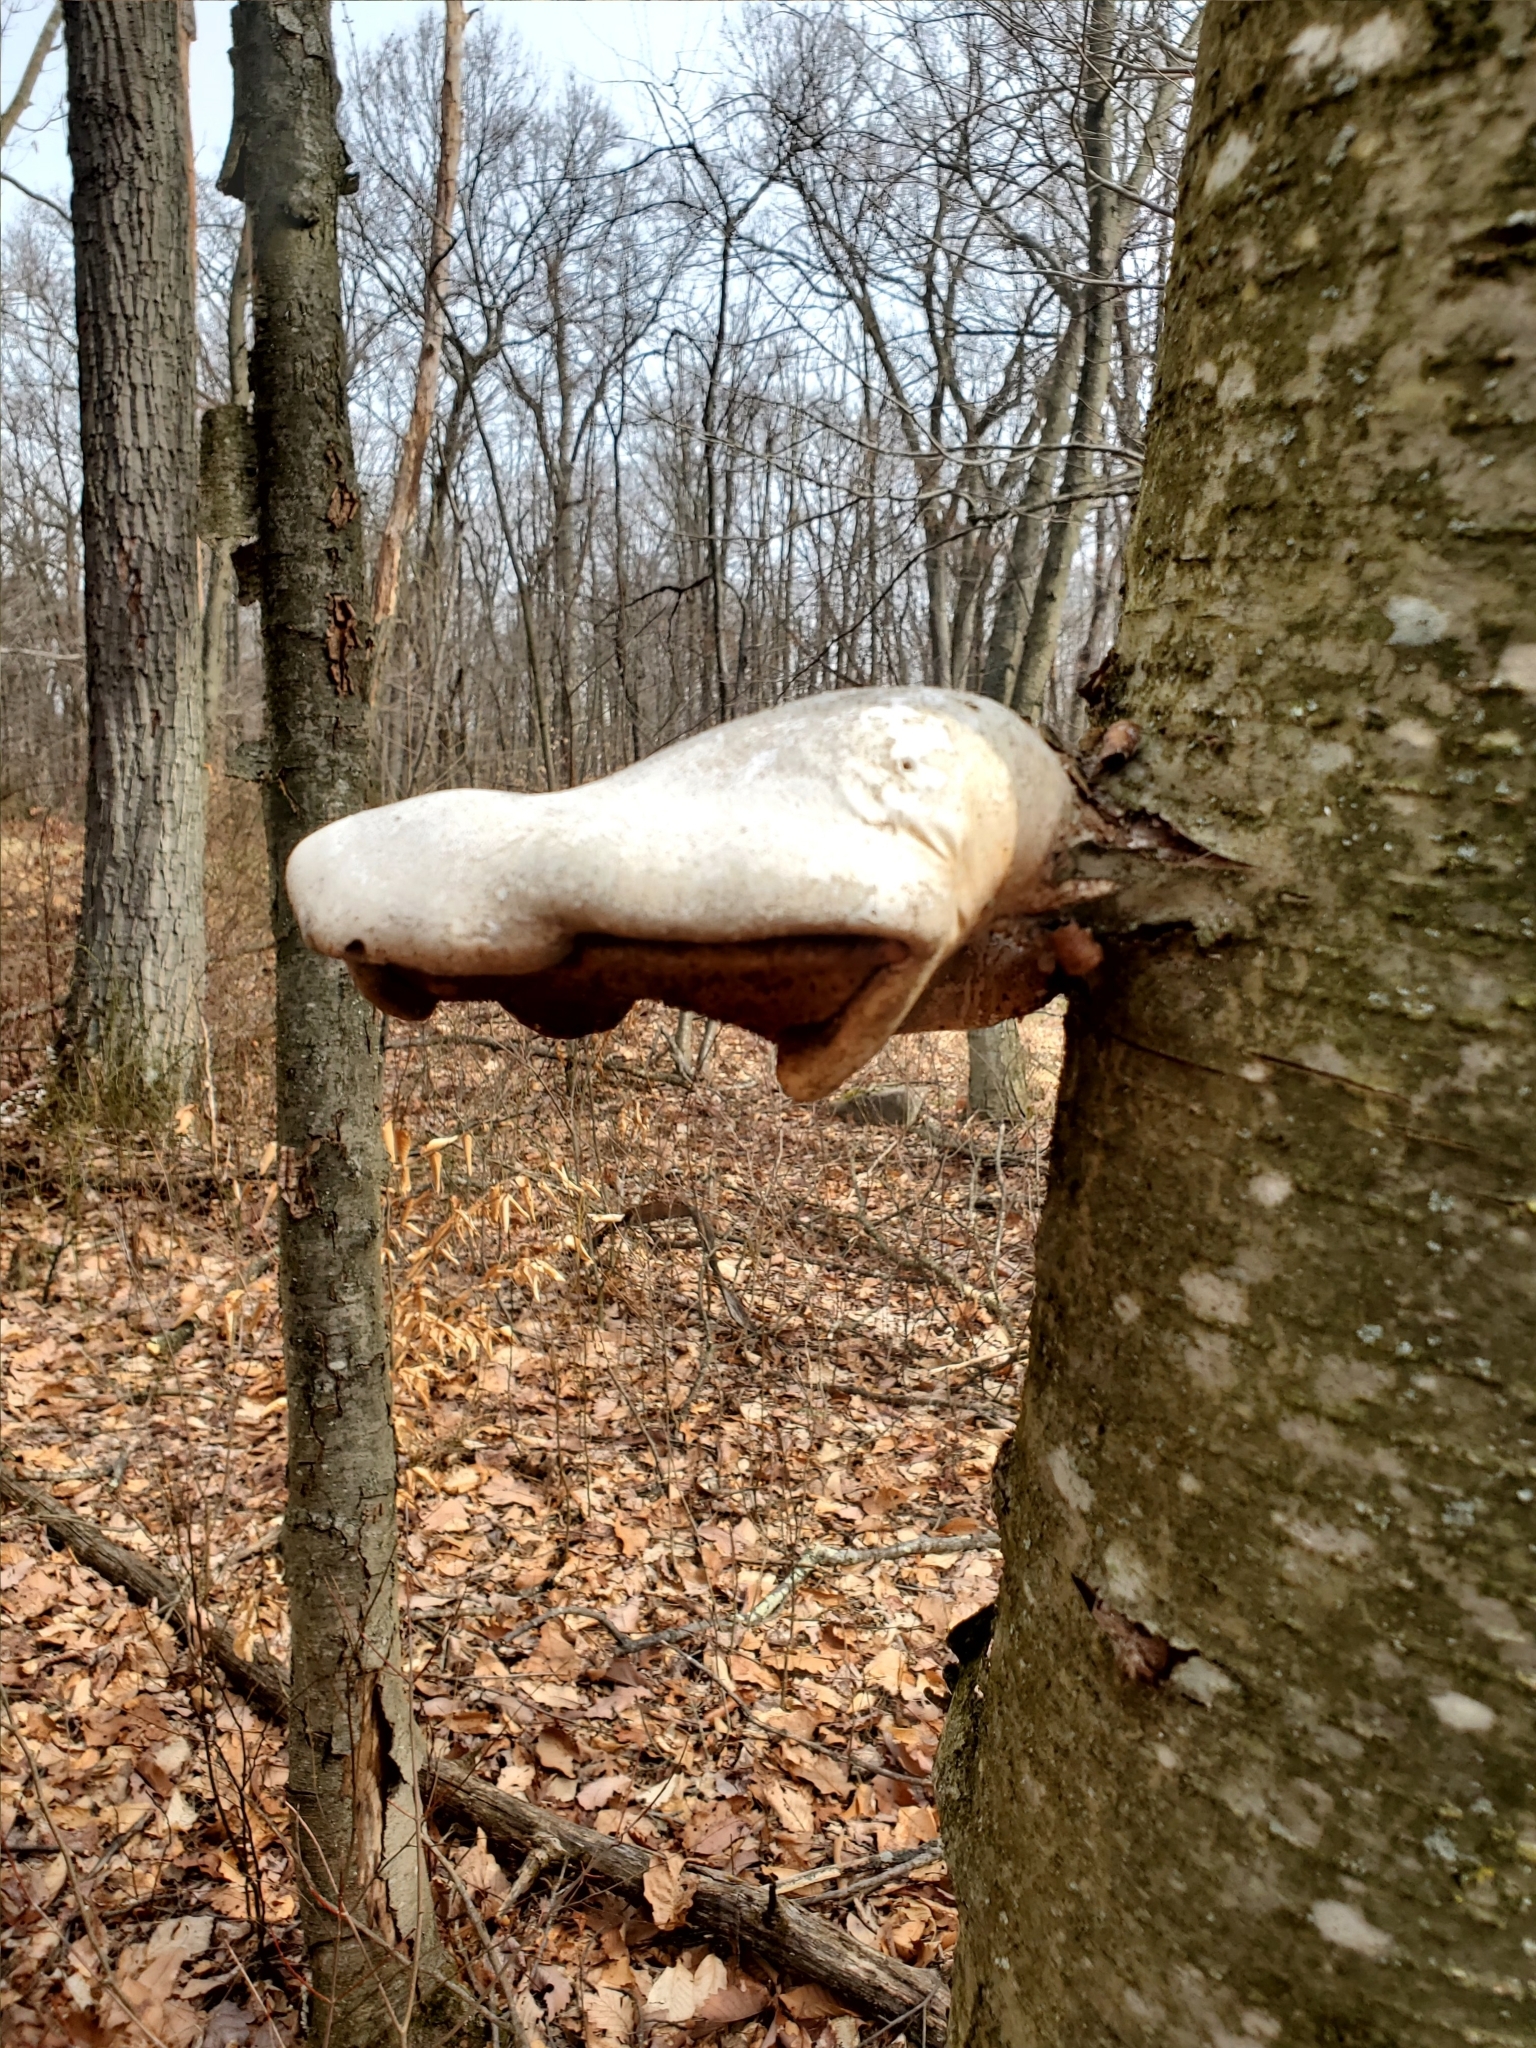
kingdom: Fungi
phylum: Basidiomycota
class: Agaricomycetes
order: Polyporales
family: Fomitopsidaceae
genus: Fomitopsis
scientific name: Fomitopsis betulina
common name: Birch polypore
